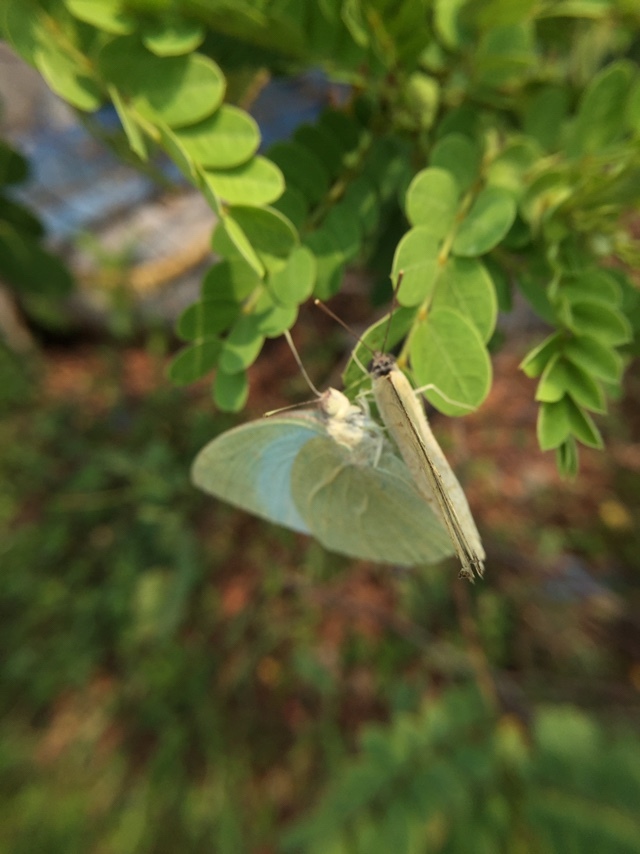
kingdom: Animalia
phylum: Arthropoda
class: Insecta
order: Lepidoptera
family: Pieridae
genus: Catopsilia
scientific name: Catopsilia pyranthe
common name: Mottled emigrant
